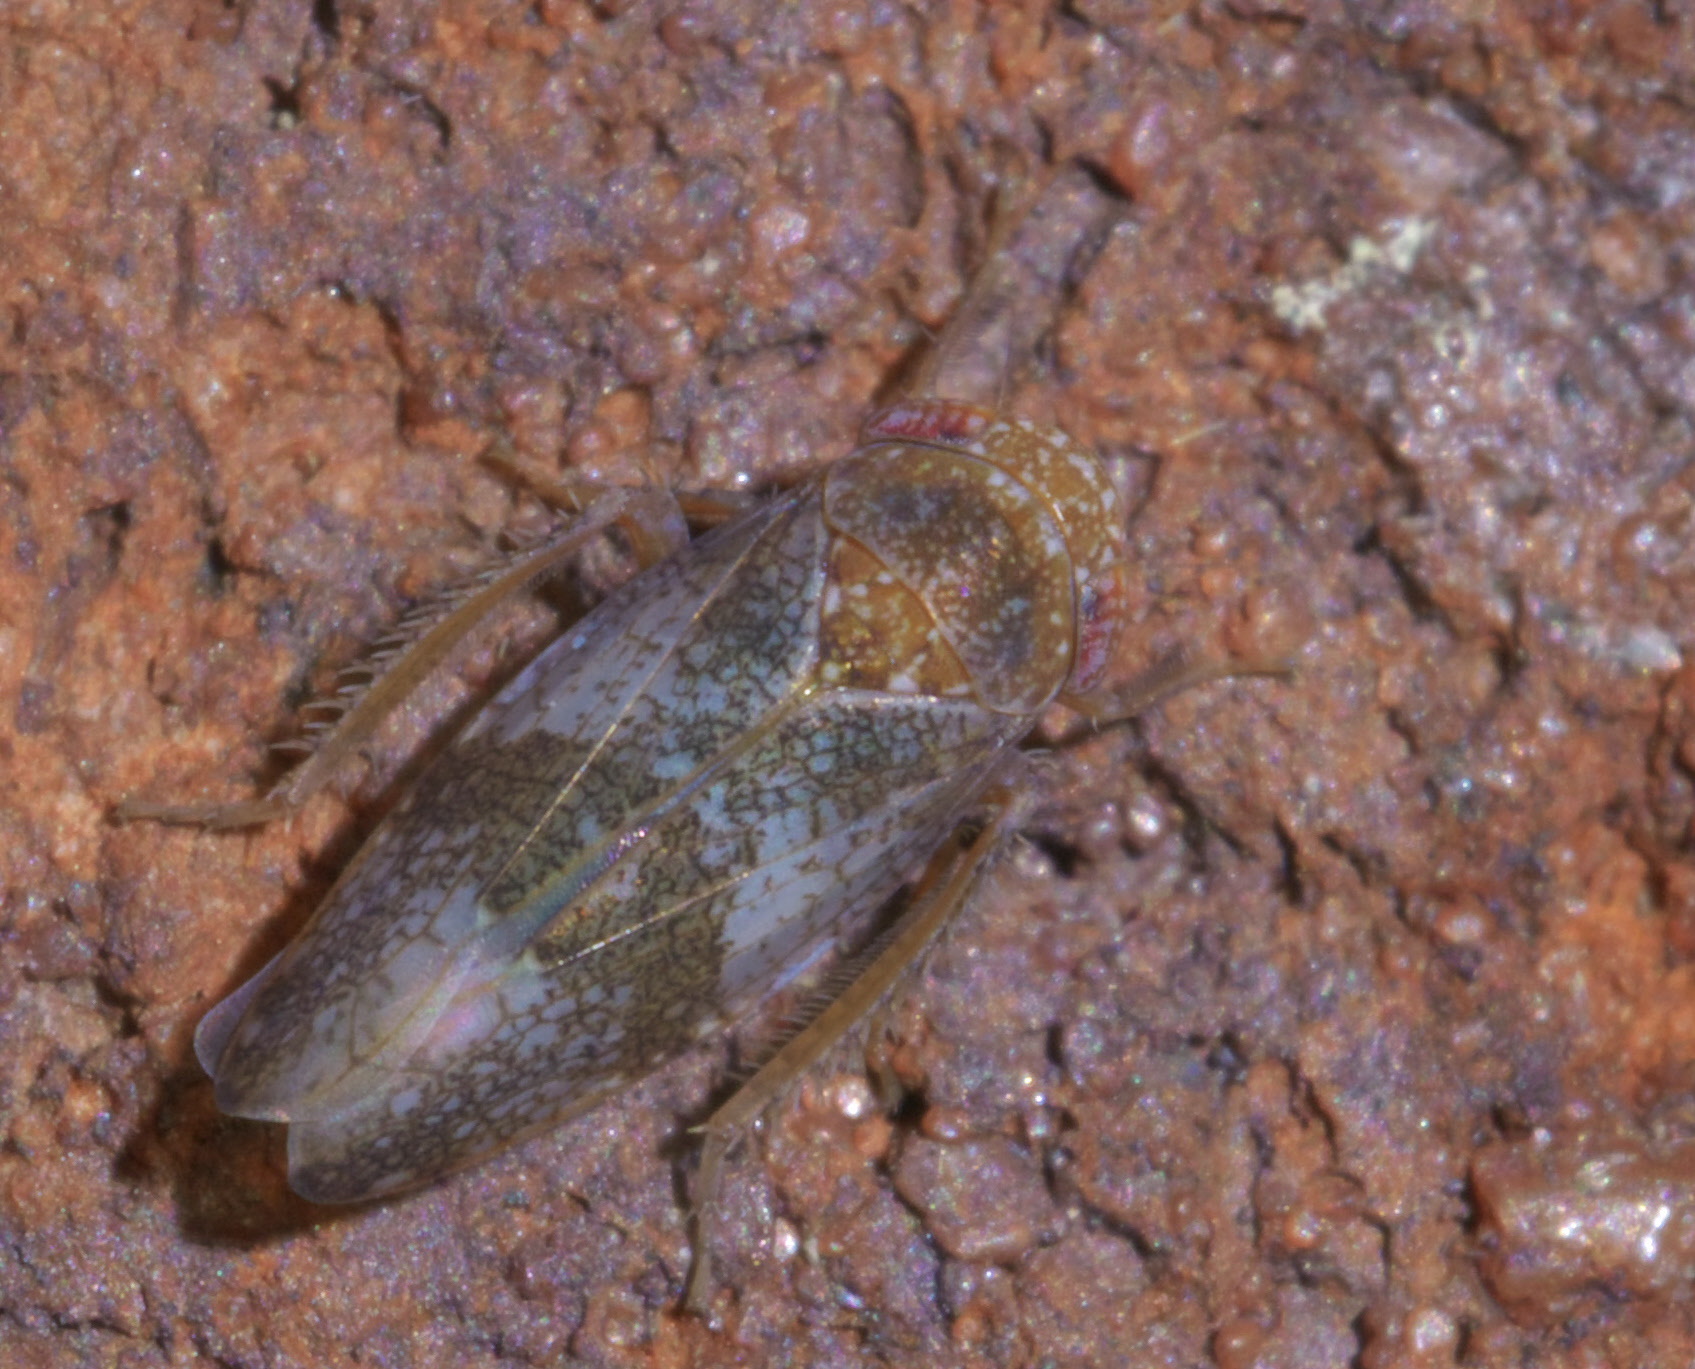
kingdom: Animalia
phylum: Arthropoda
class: Insecta
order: Hemiptera
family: Cicadellidae
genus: Norvellina
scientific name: Norvellina helenae
